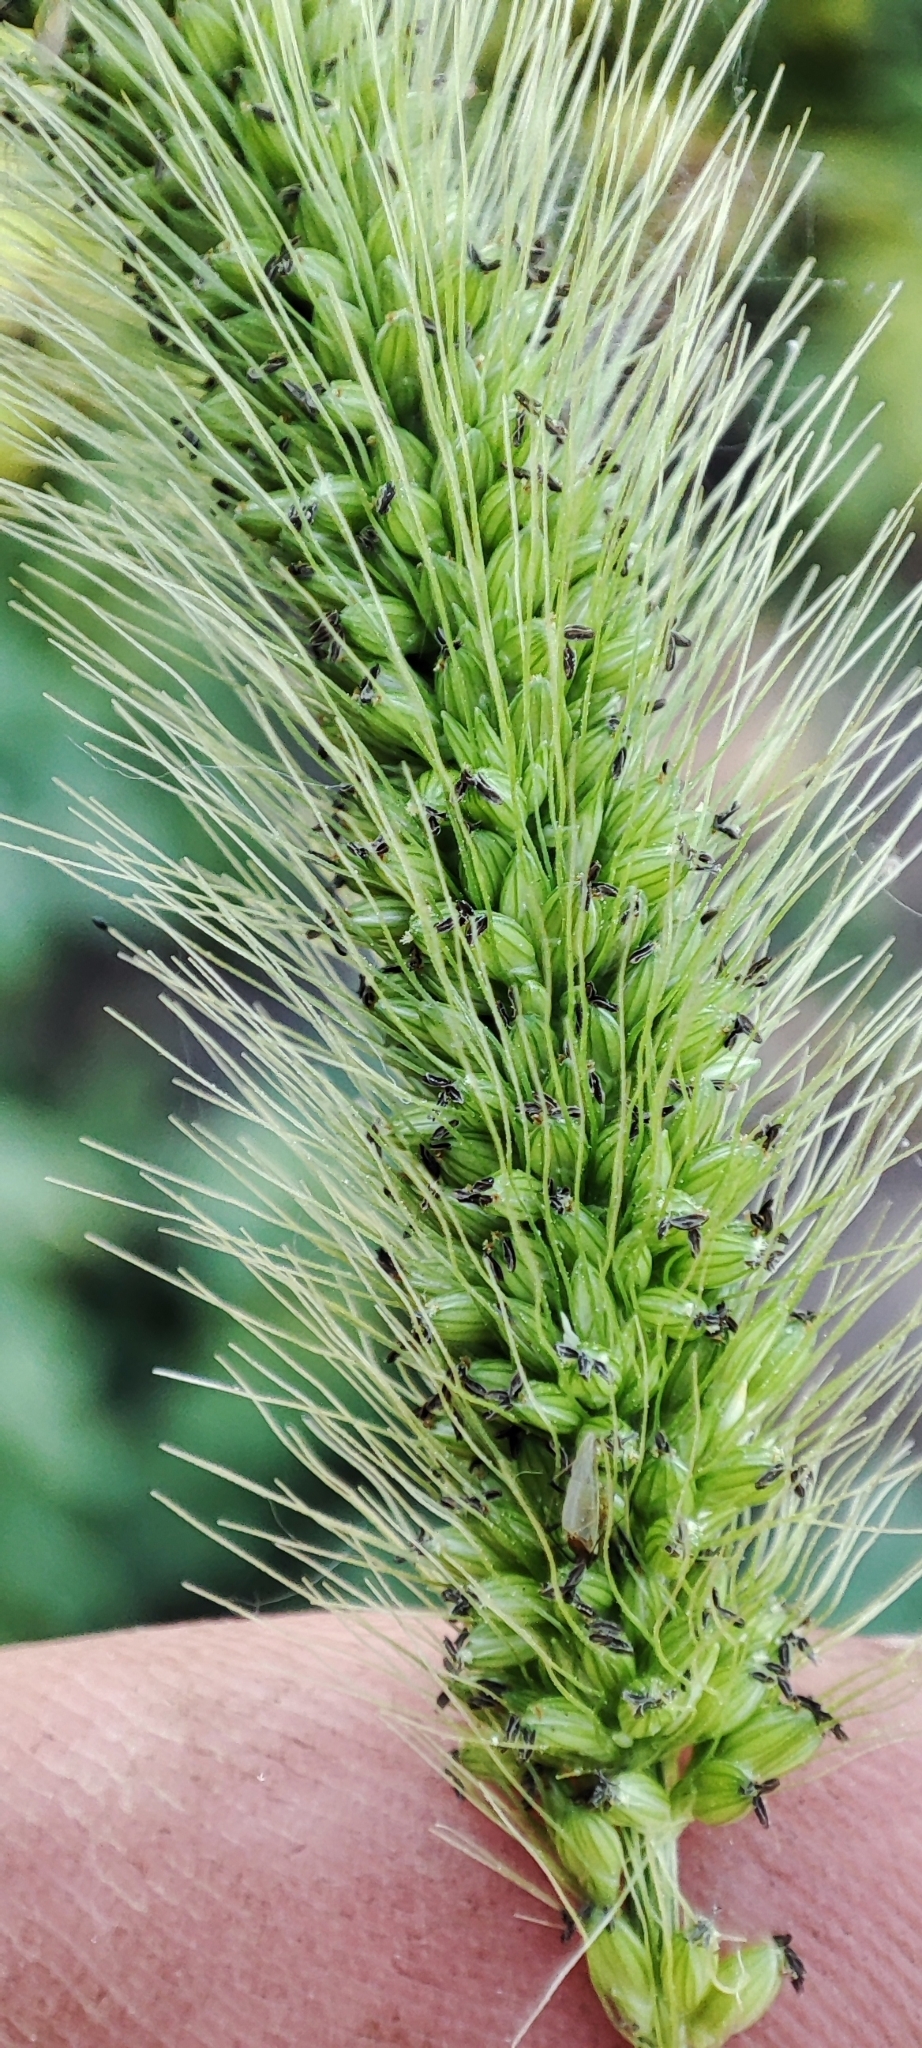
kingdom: Plantae
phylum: Tracheophyta
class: Liliopsida
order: Poales
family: Poaceae
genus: Setaria
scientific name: Setaria viridis
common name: Green bristlegrass
